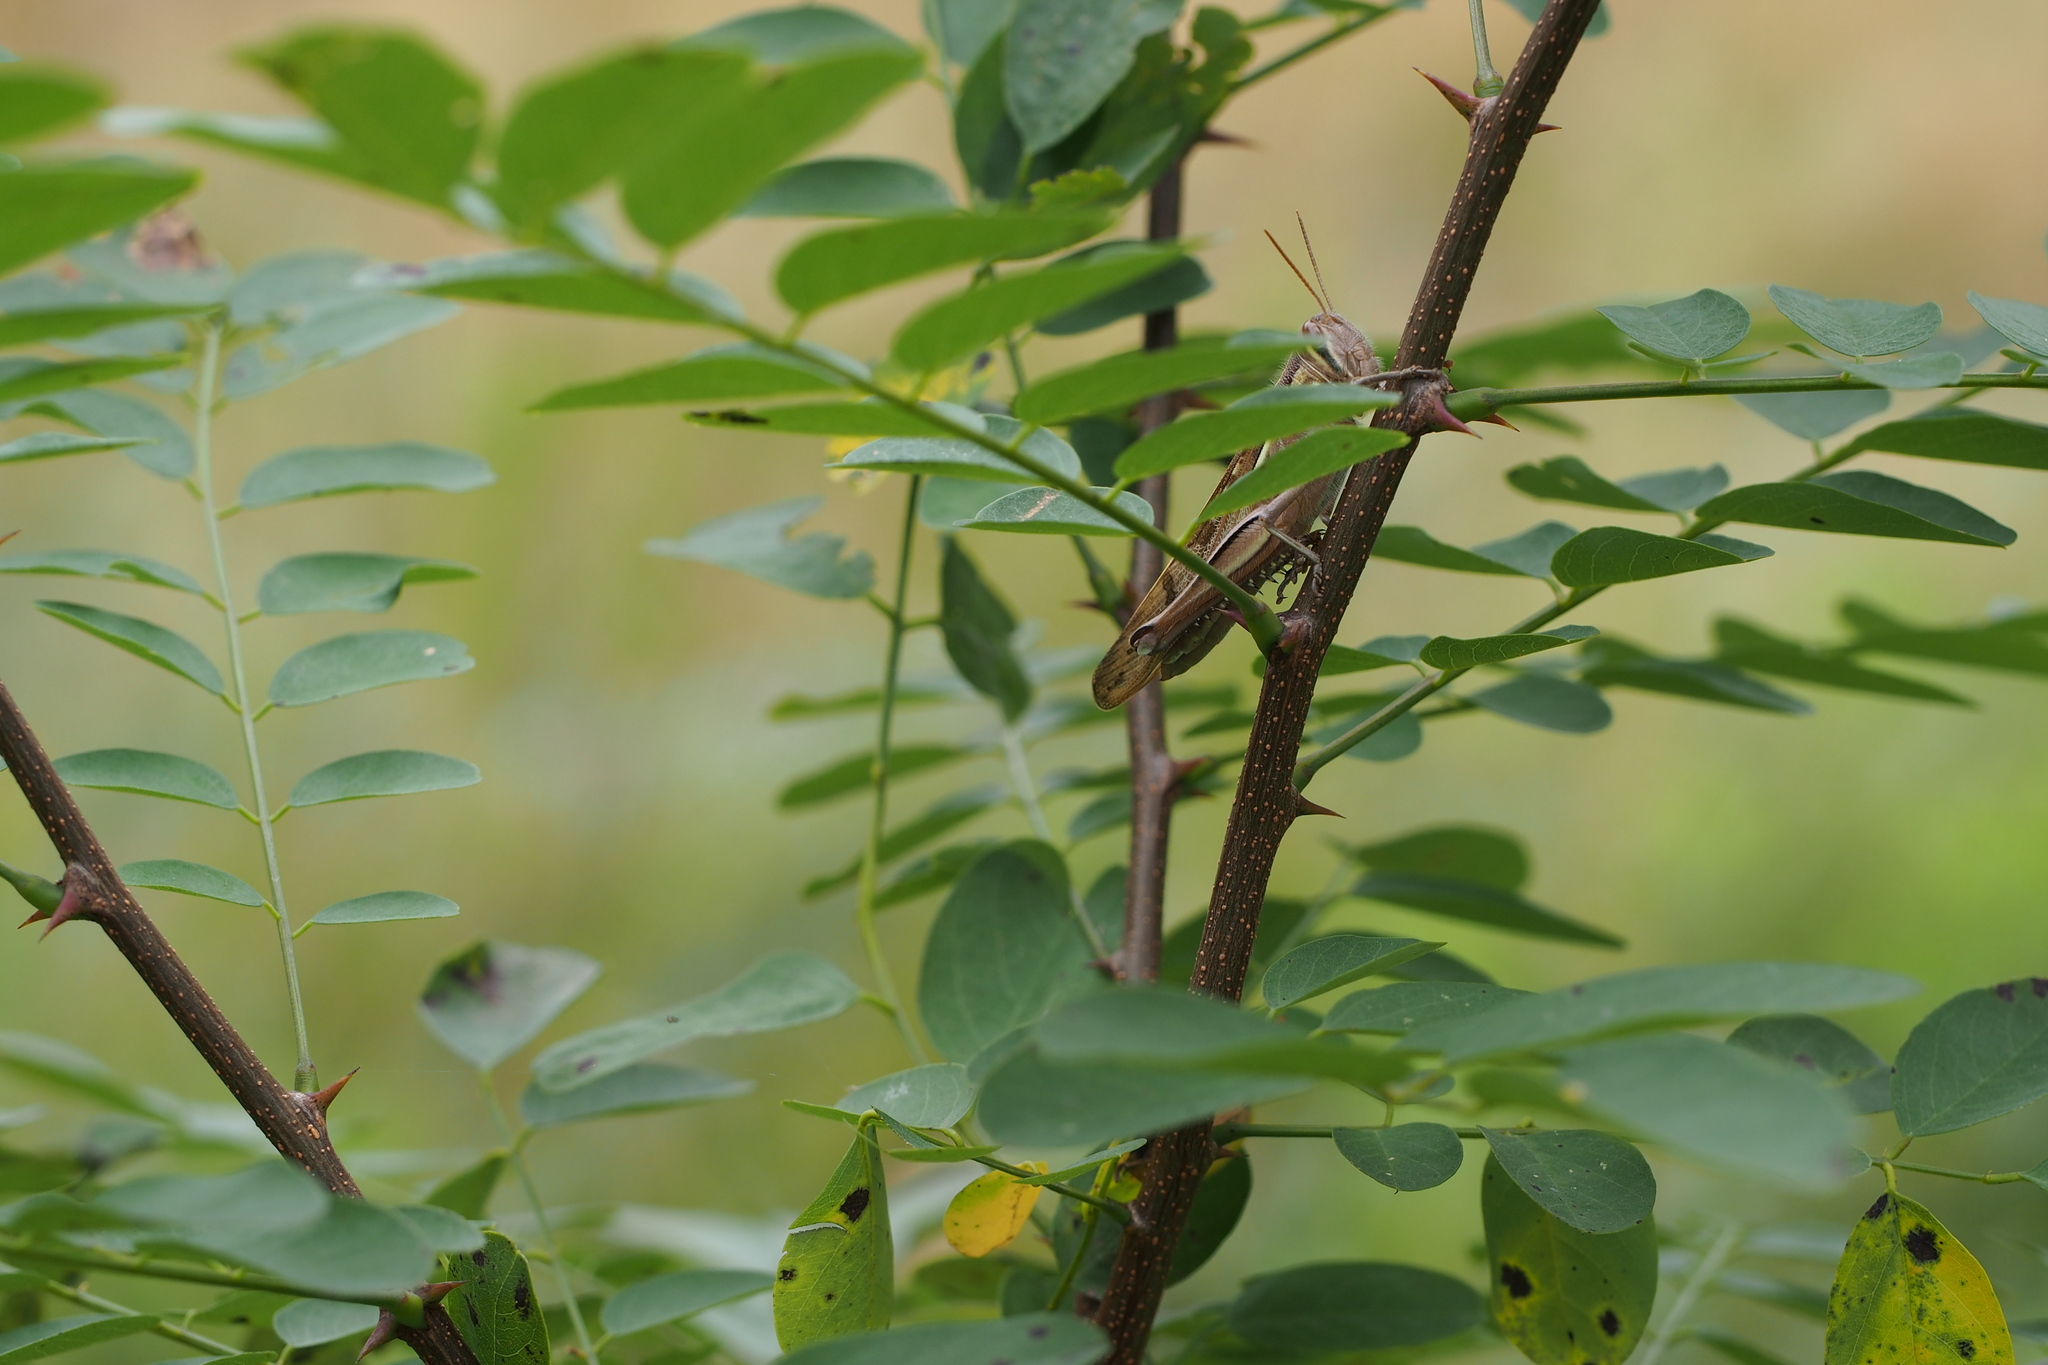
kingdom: Animalia
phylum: Arthropoda
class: Insecta
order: Orthoptera
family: Acrididae
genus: Patanga
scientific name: Patanga japonica
